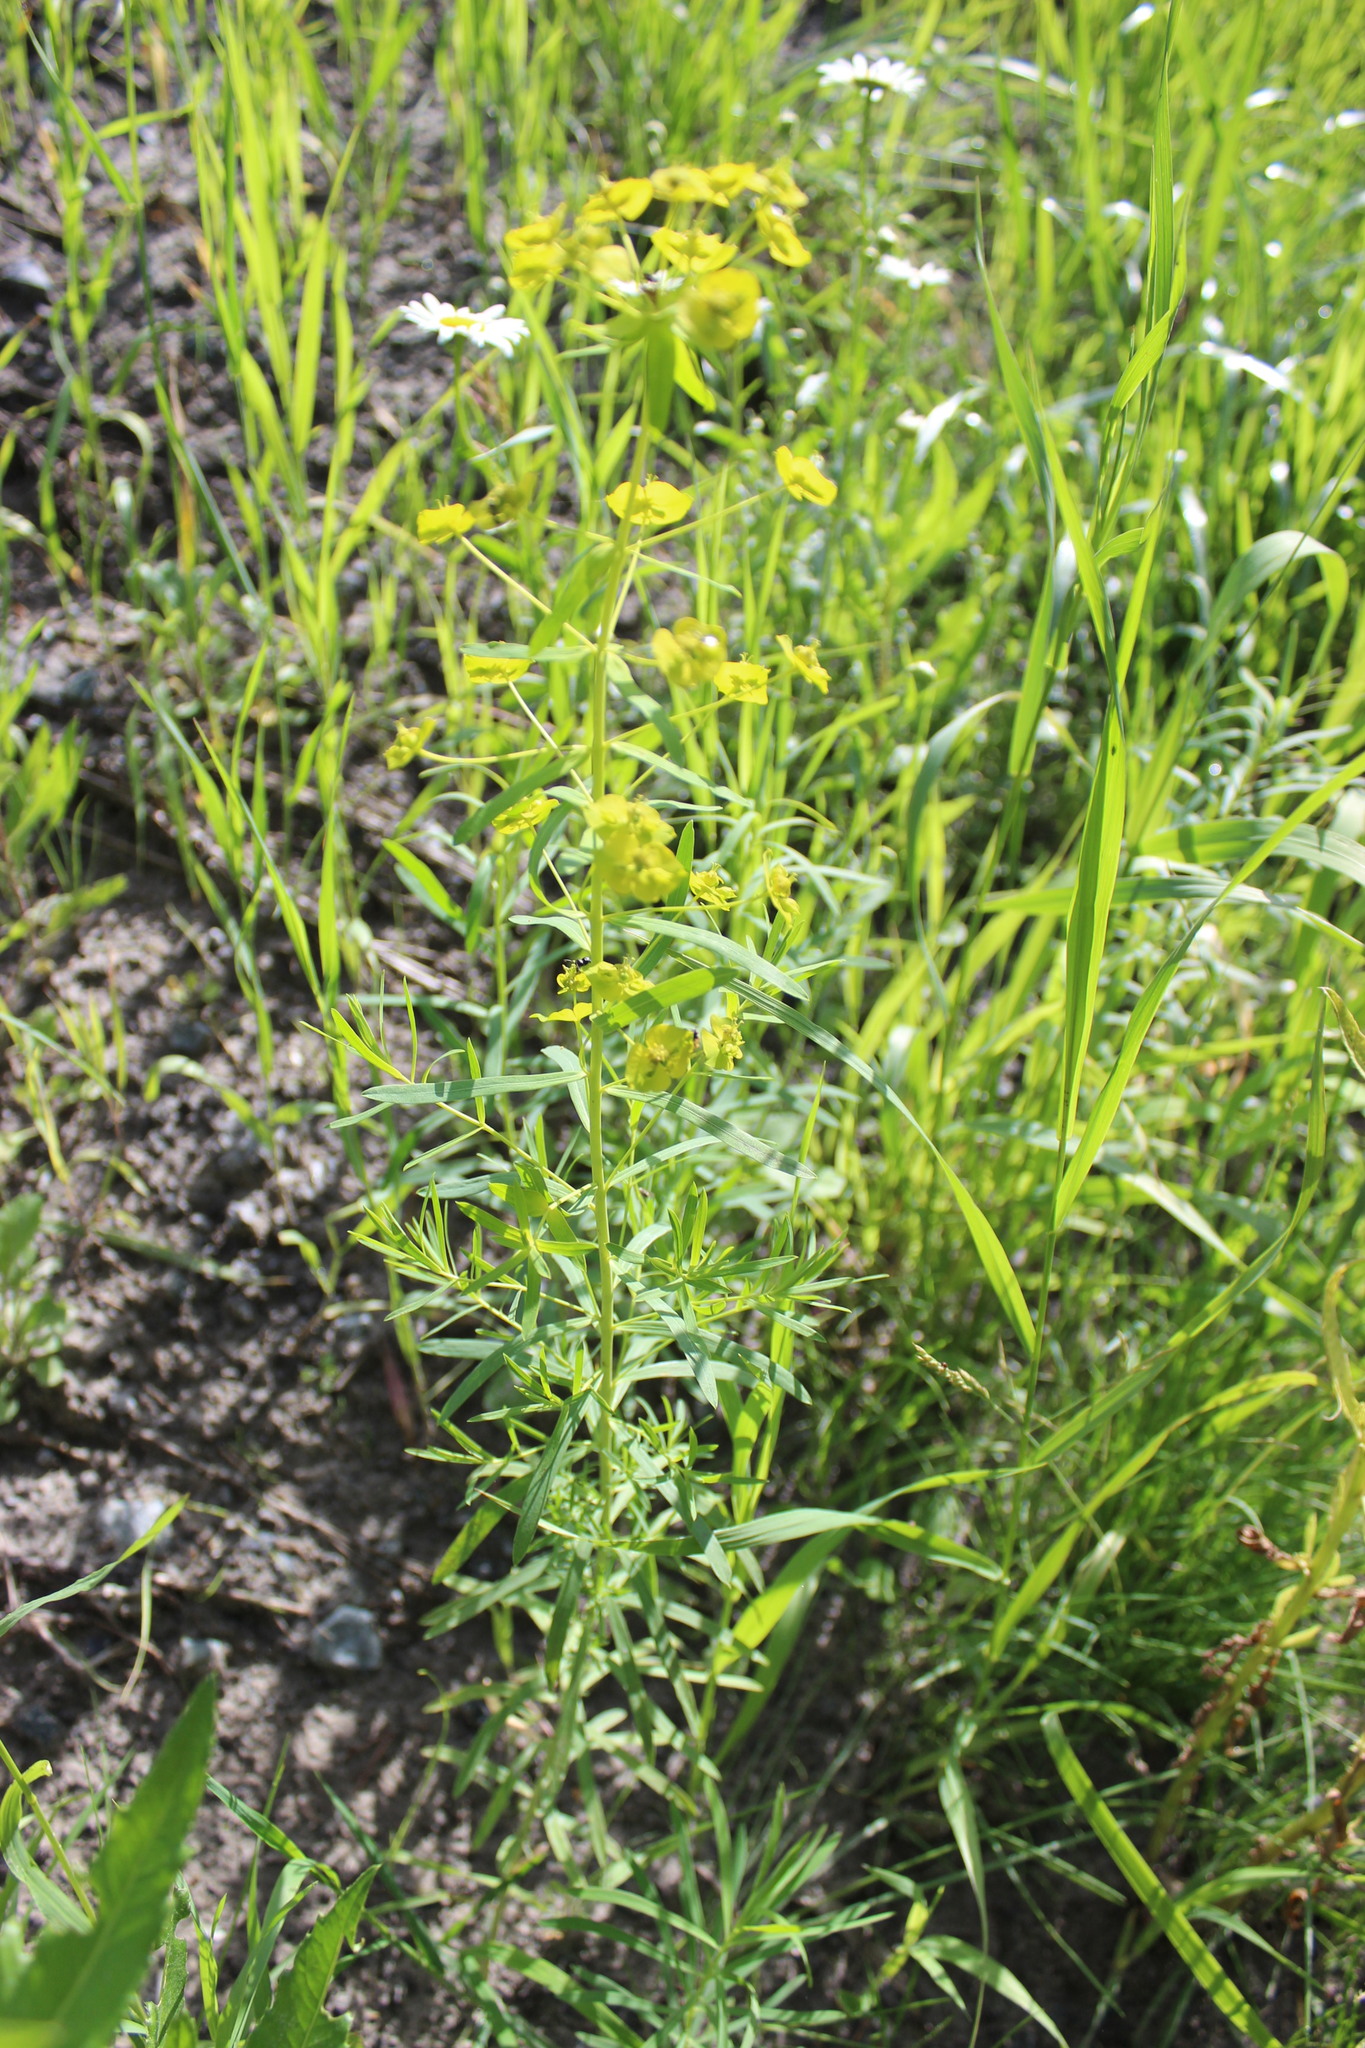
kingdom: Plantae
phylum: Tracheophyta
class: Magnoliopsida
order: Malpighiales
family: Euphorbiaceae
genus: Euphorbia
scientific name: Euphorbia virgata
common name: Leafy spurge
